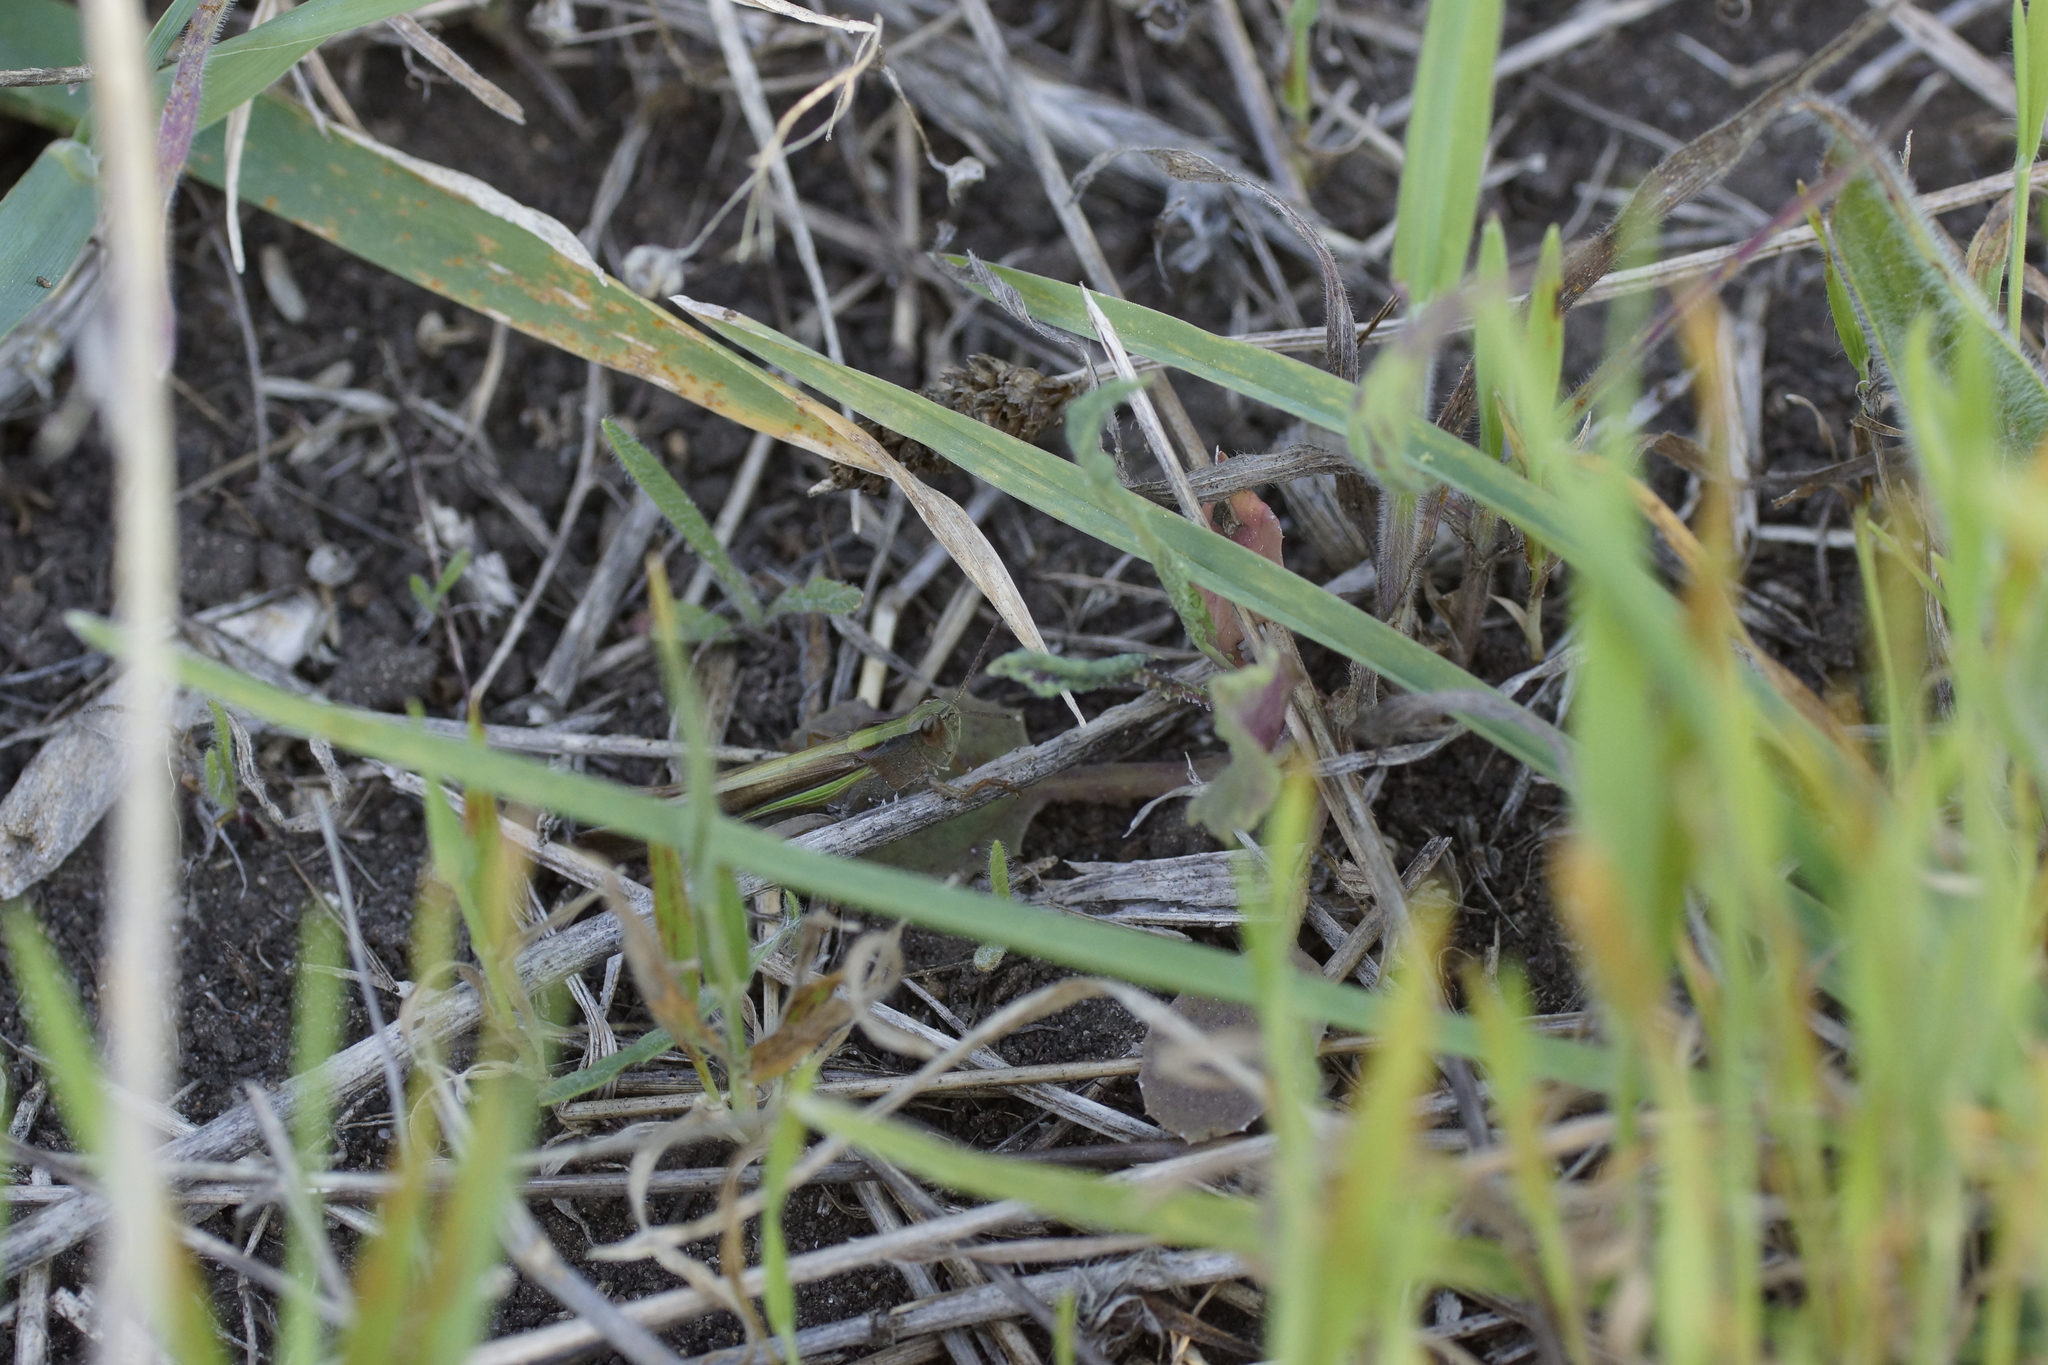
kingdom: Animalia
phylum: Arthropoda
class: Insecta
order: Orthoptera
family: Acrididae
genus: Schizobothrus
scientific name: Schizobothrus flavovittatus
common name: Disappearing grasshopper
